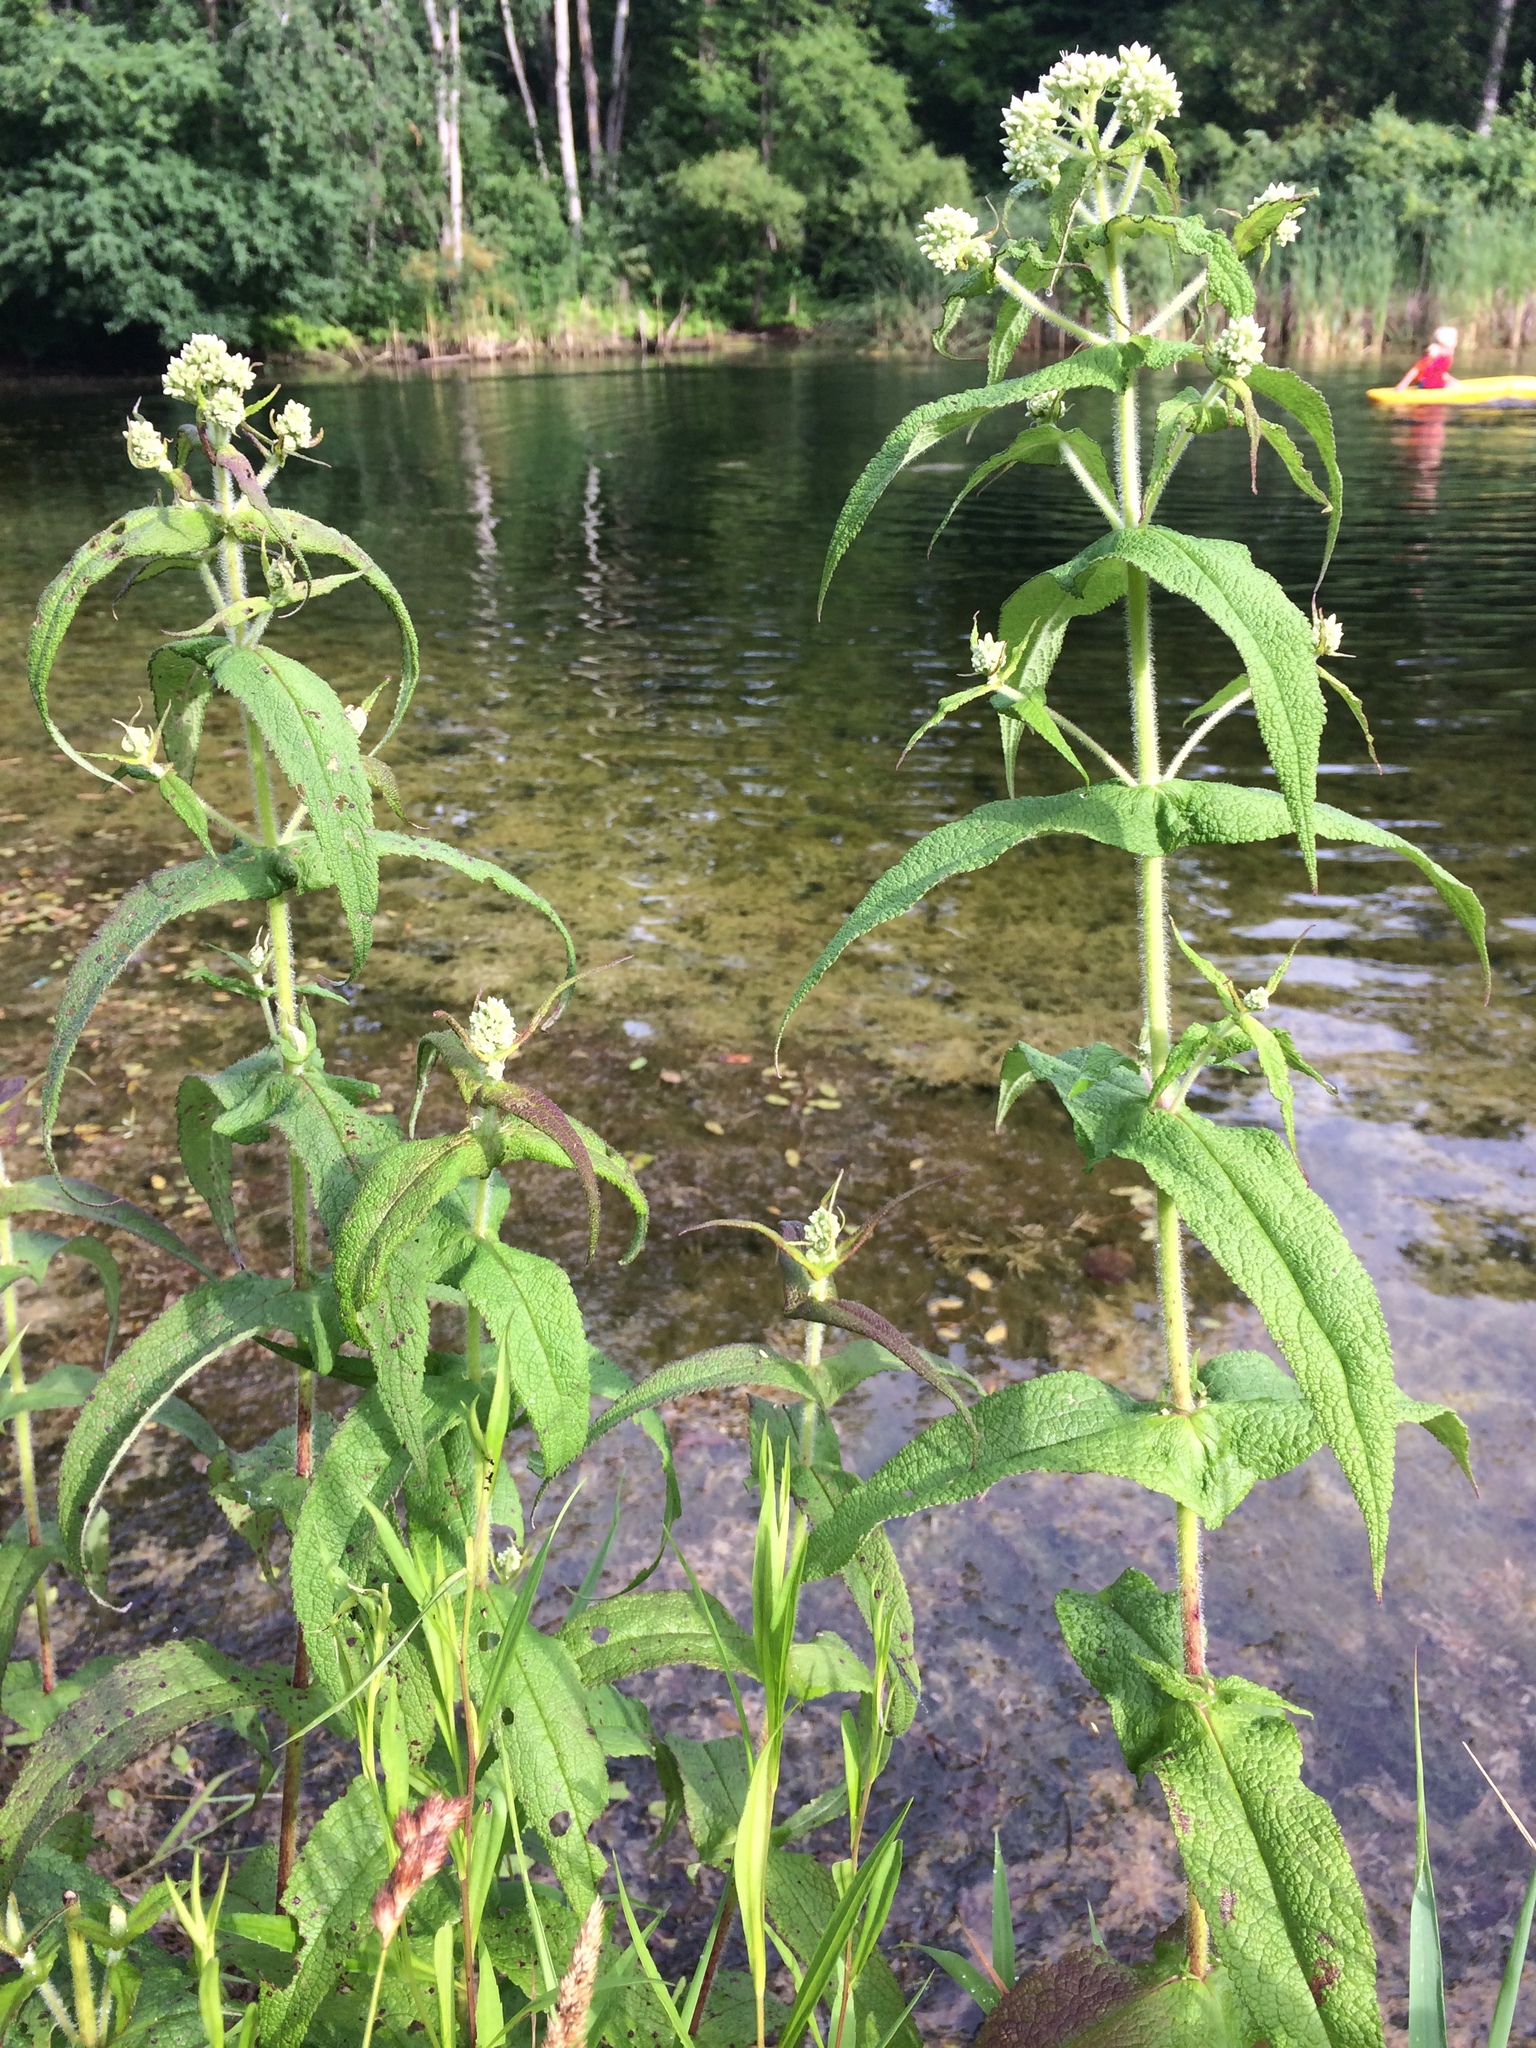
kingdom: Plantae
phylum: Tracheophyta
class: Magnoliopsida
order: Asterales
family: Asteraceae
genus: Eupatorium
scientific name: Eupatorium perfoliatum
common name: Boneset
